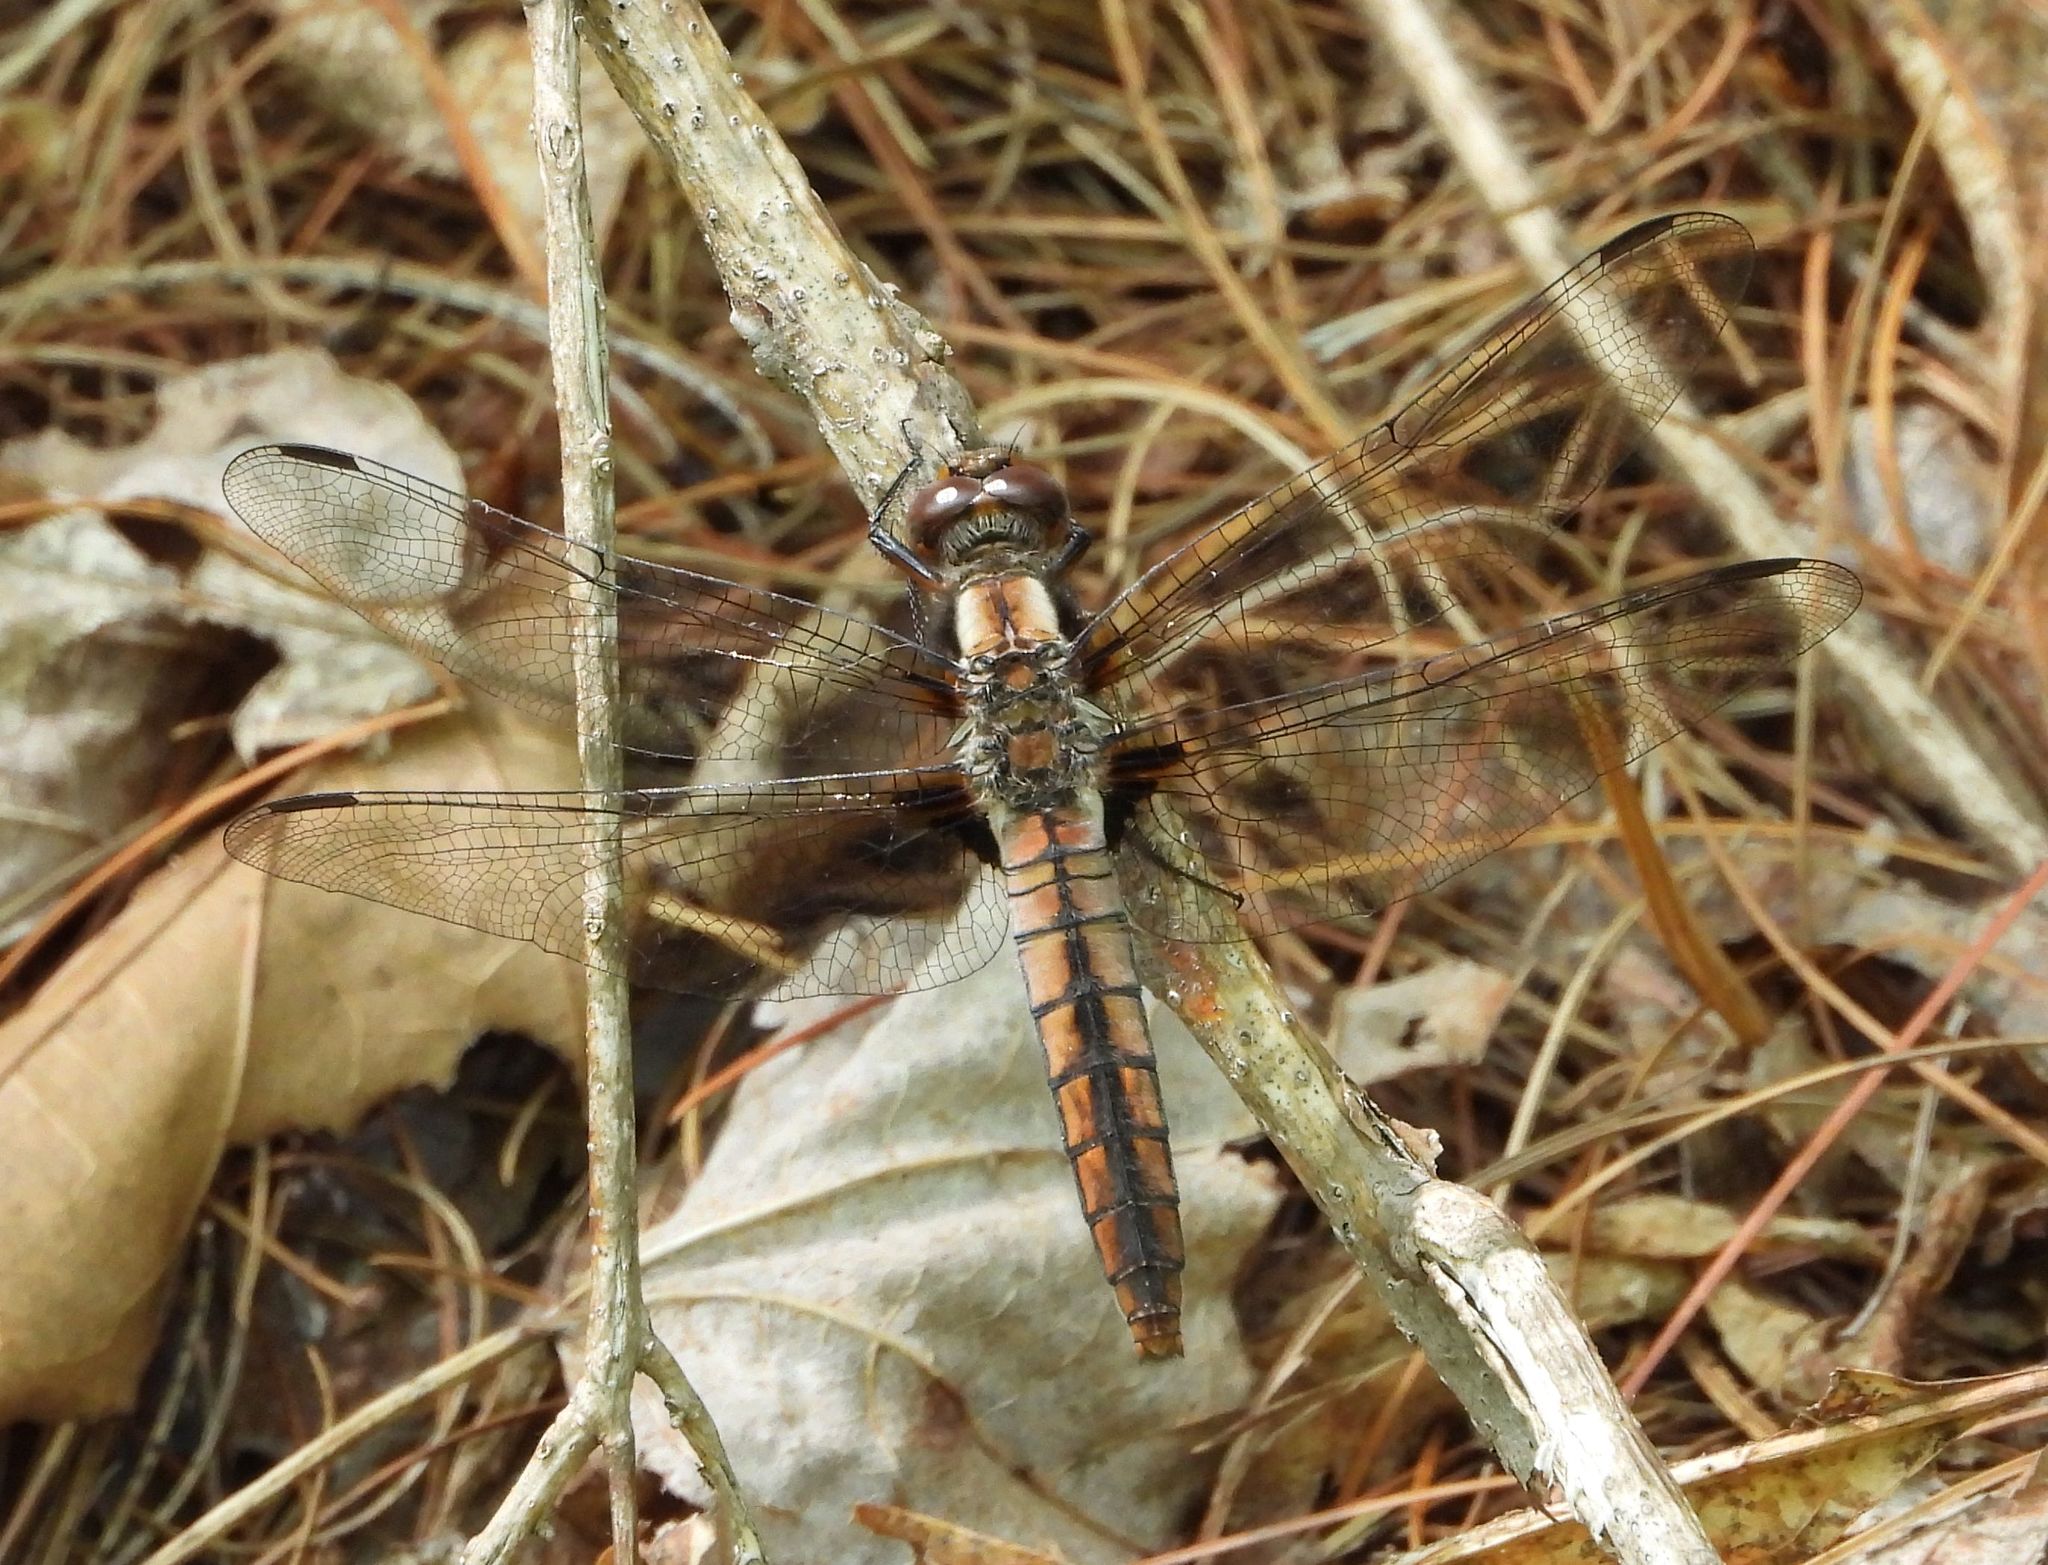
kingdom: Animalia
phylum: Arthropoda
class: Insecta
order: Odonata
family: Libellulidae
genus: Ladona
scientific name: Ladona julia
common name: Chalk-fronted corporal
